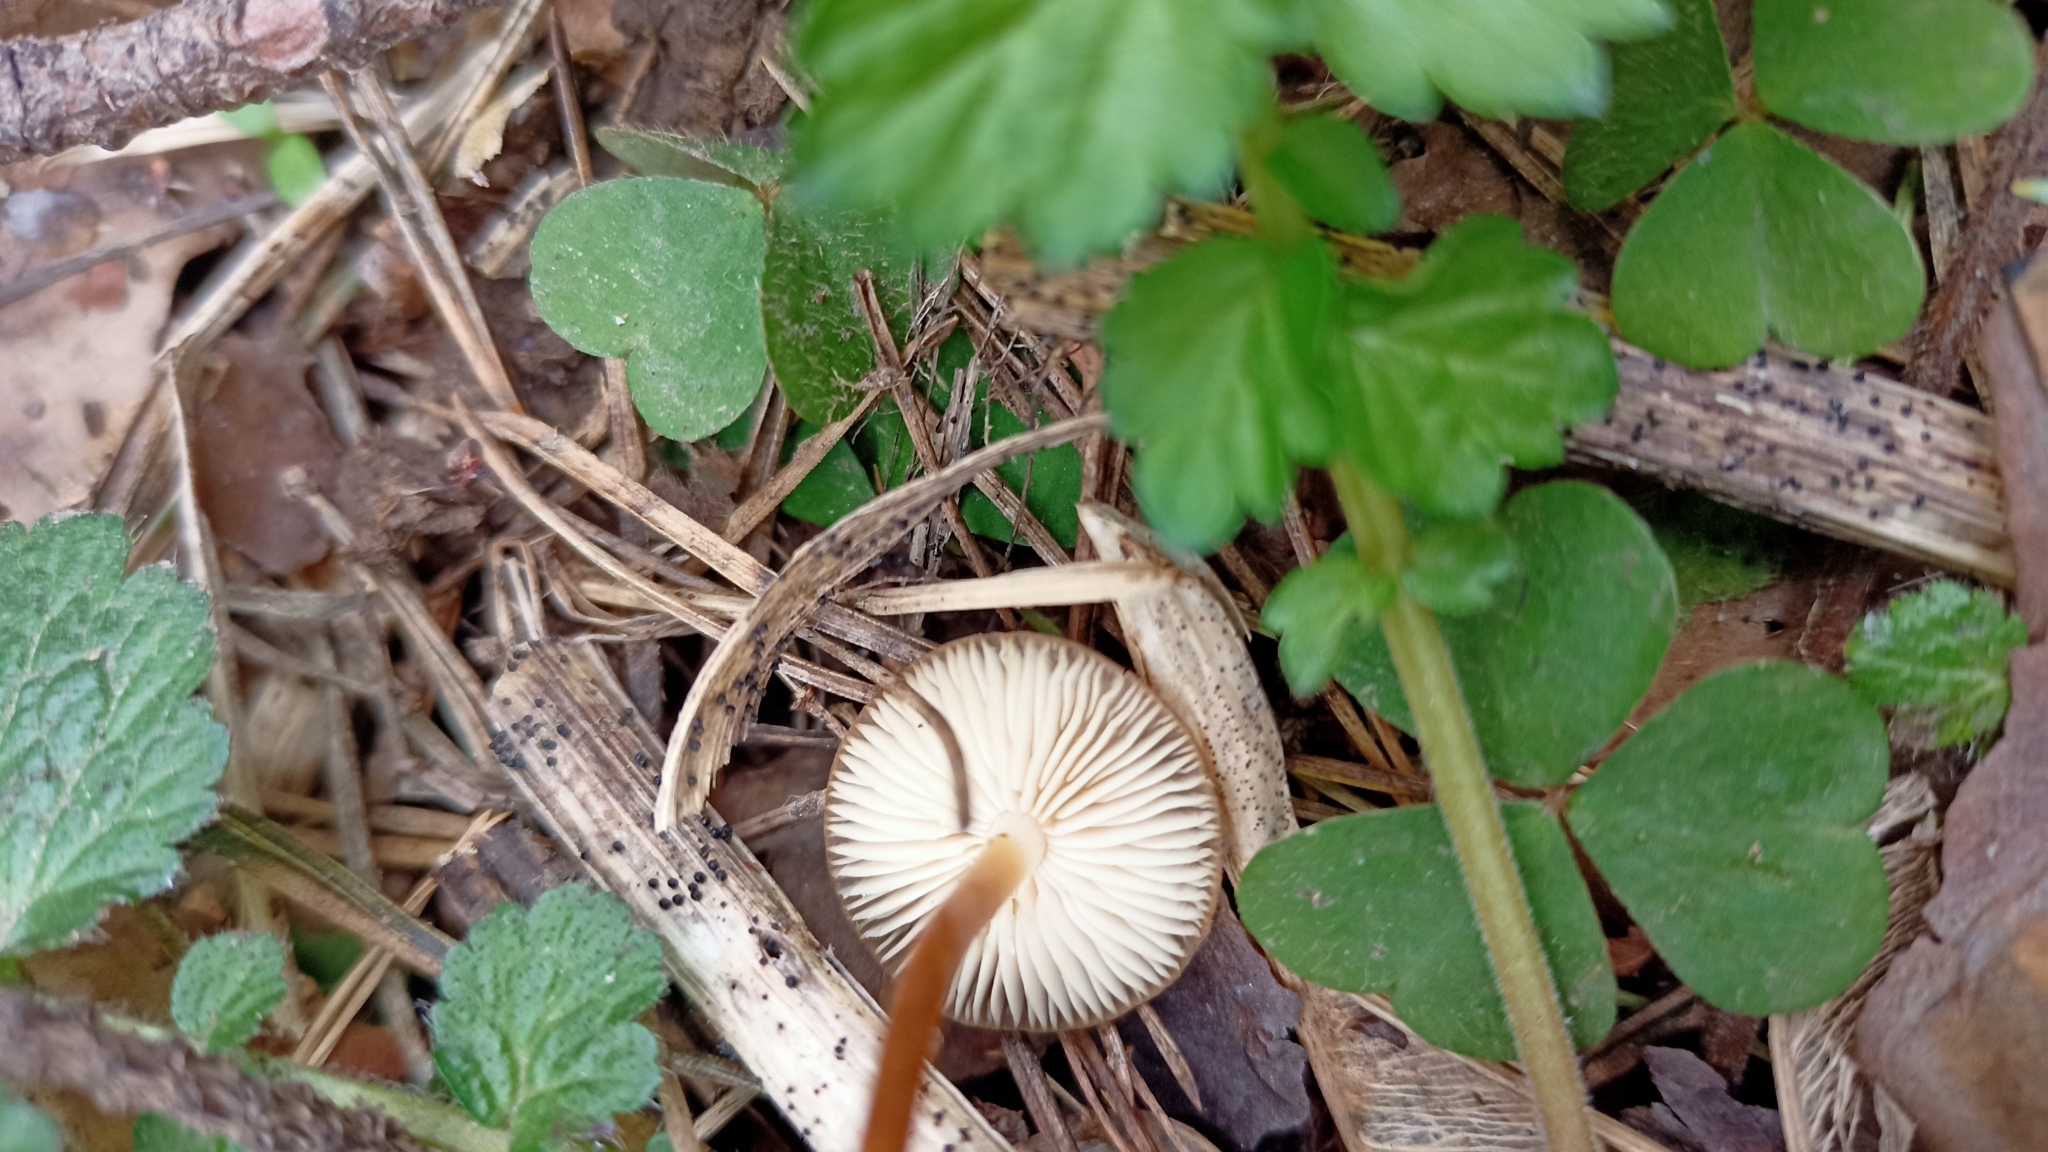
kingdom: Fungi
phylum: Basidiomycota
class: Agaricomycetes
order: Agaricales
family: Physalacriaceae
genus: Strobilurus
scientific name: Strobilurus
